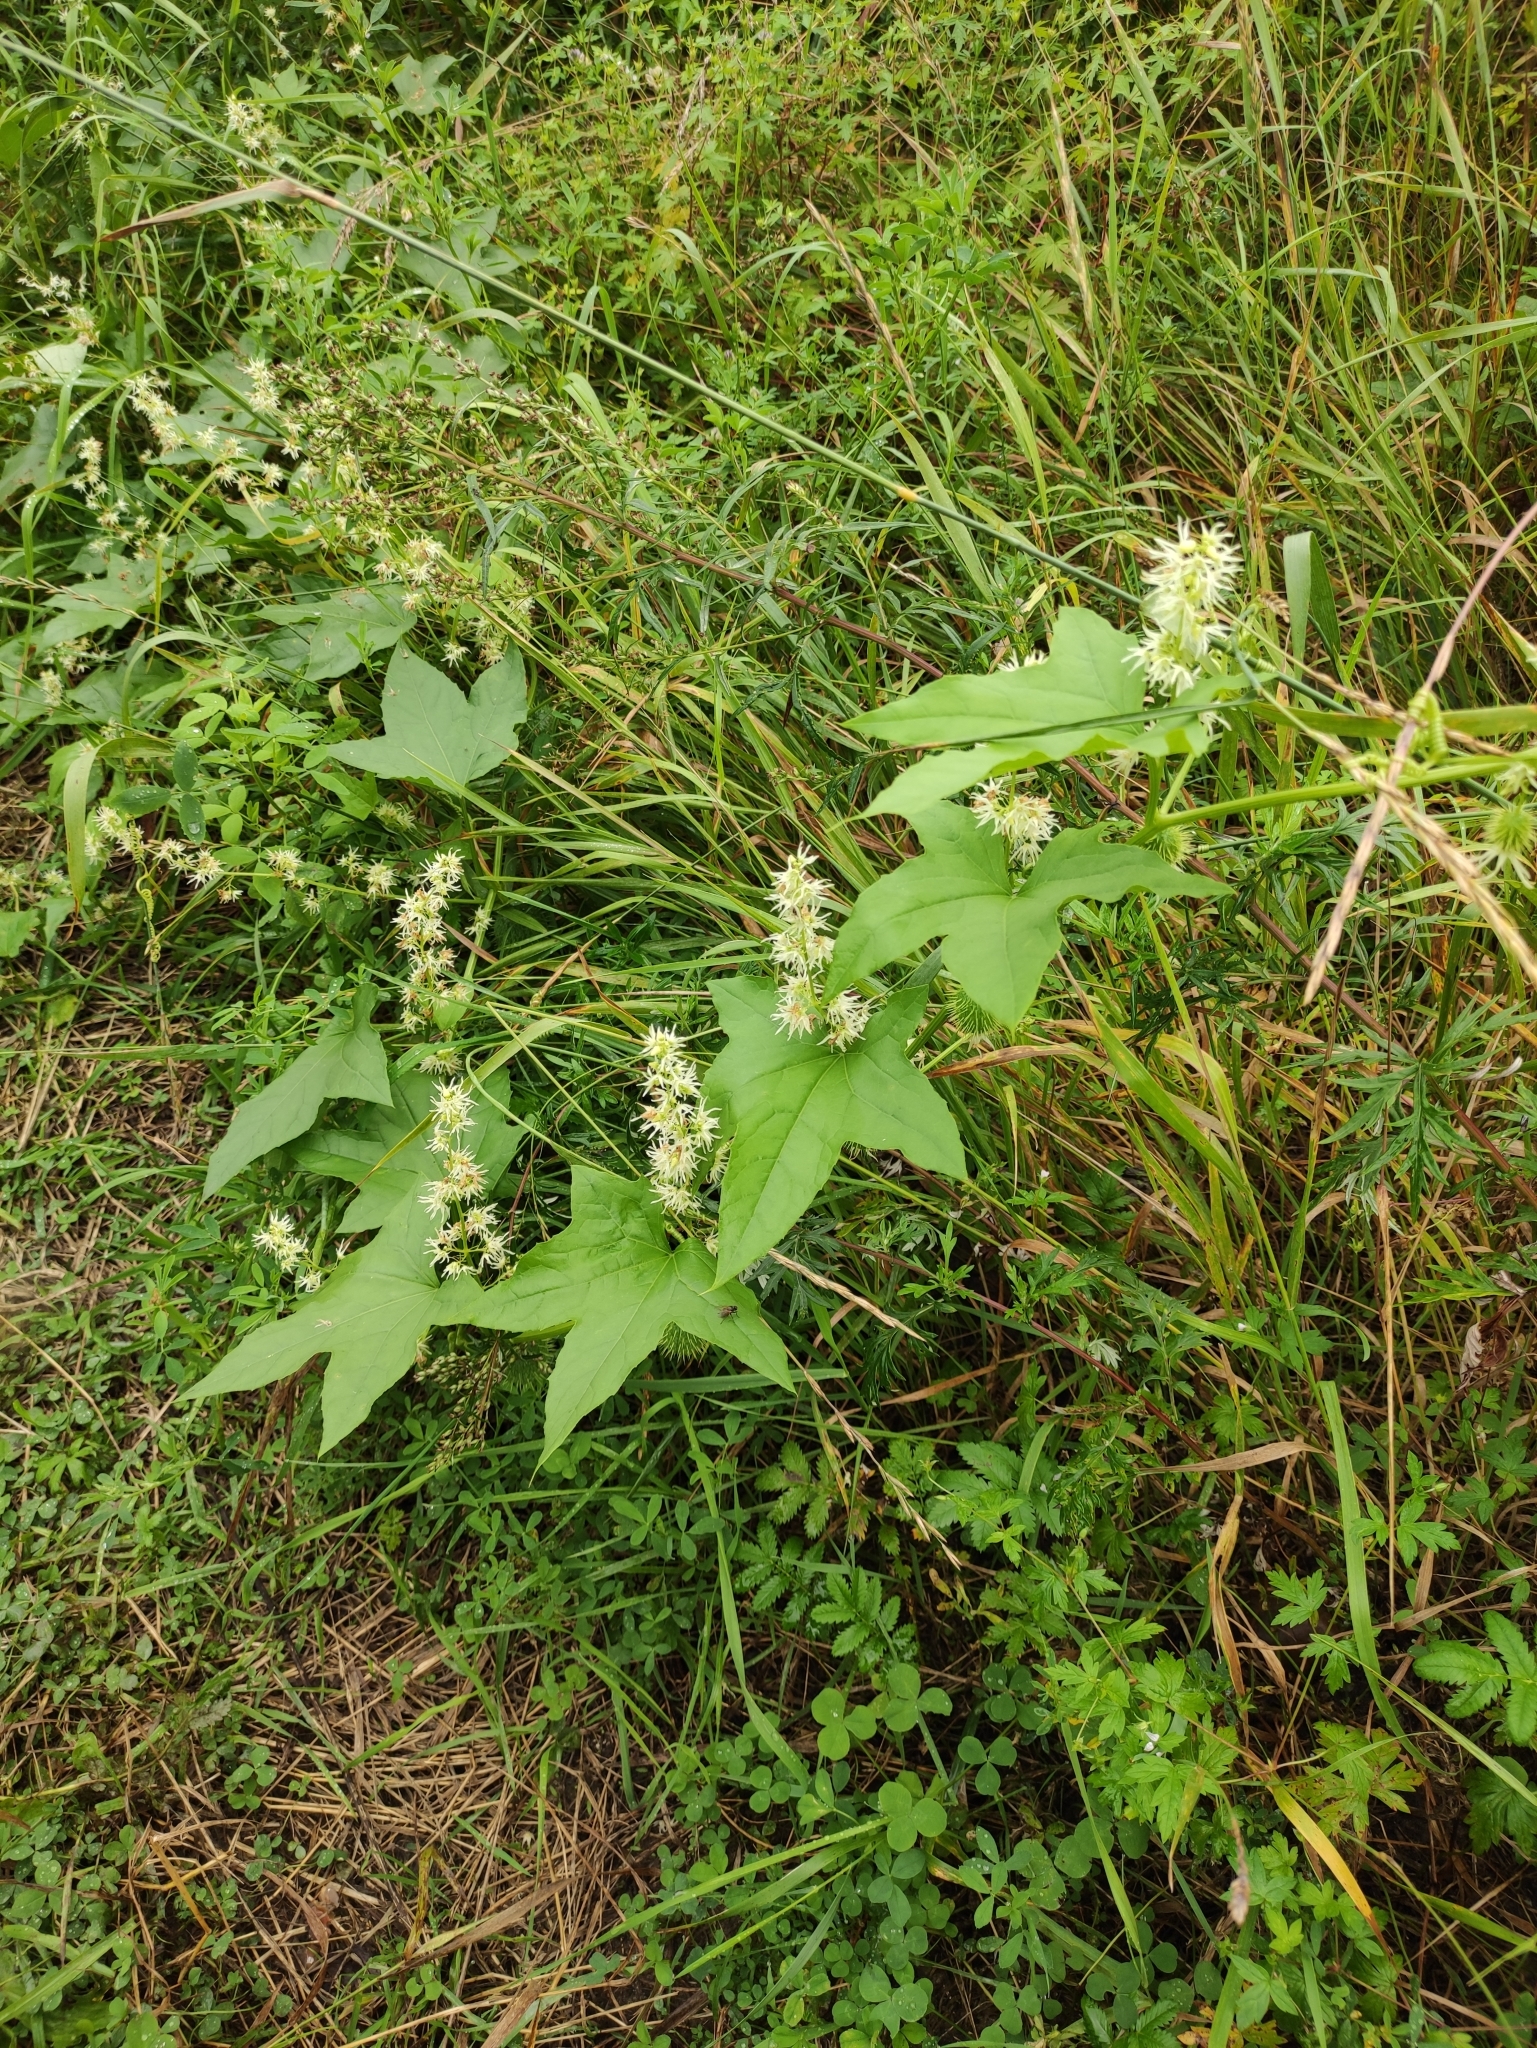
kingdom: Plantae
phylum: Tracheophyta
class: Magnoliopsida
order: Cucurbitales
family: Cucurbitaceae
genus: Echinocystis
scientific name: Echinocystis lobata
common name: Wild cucumber
